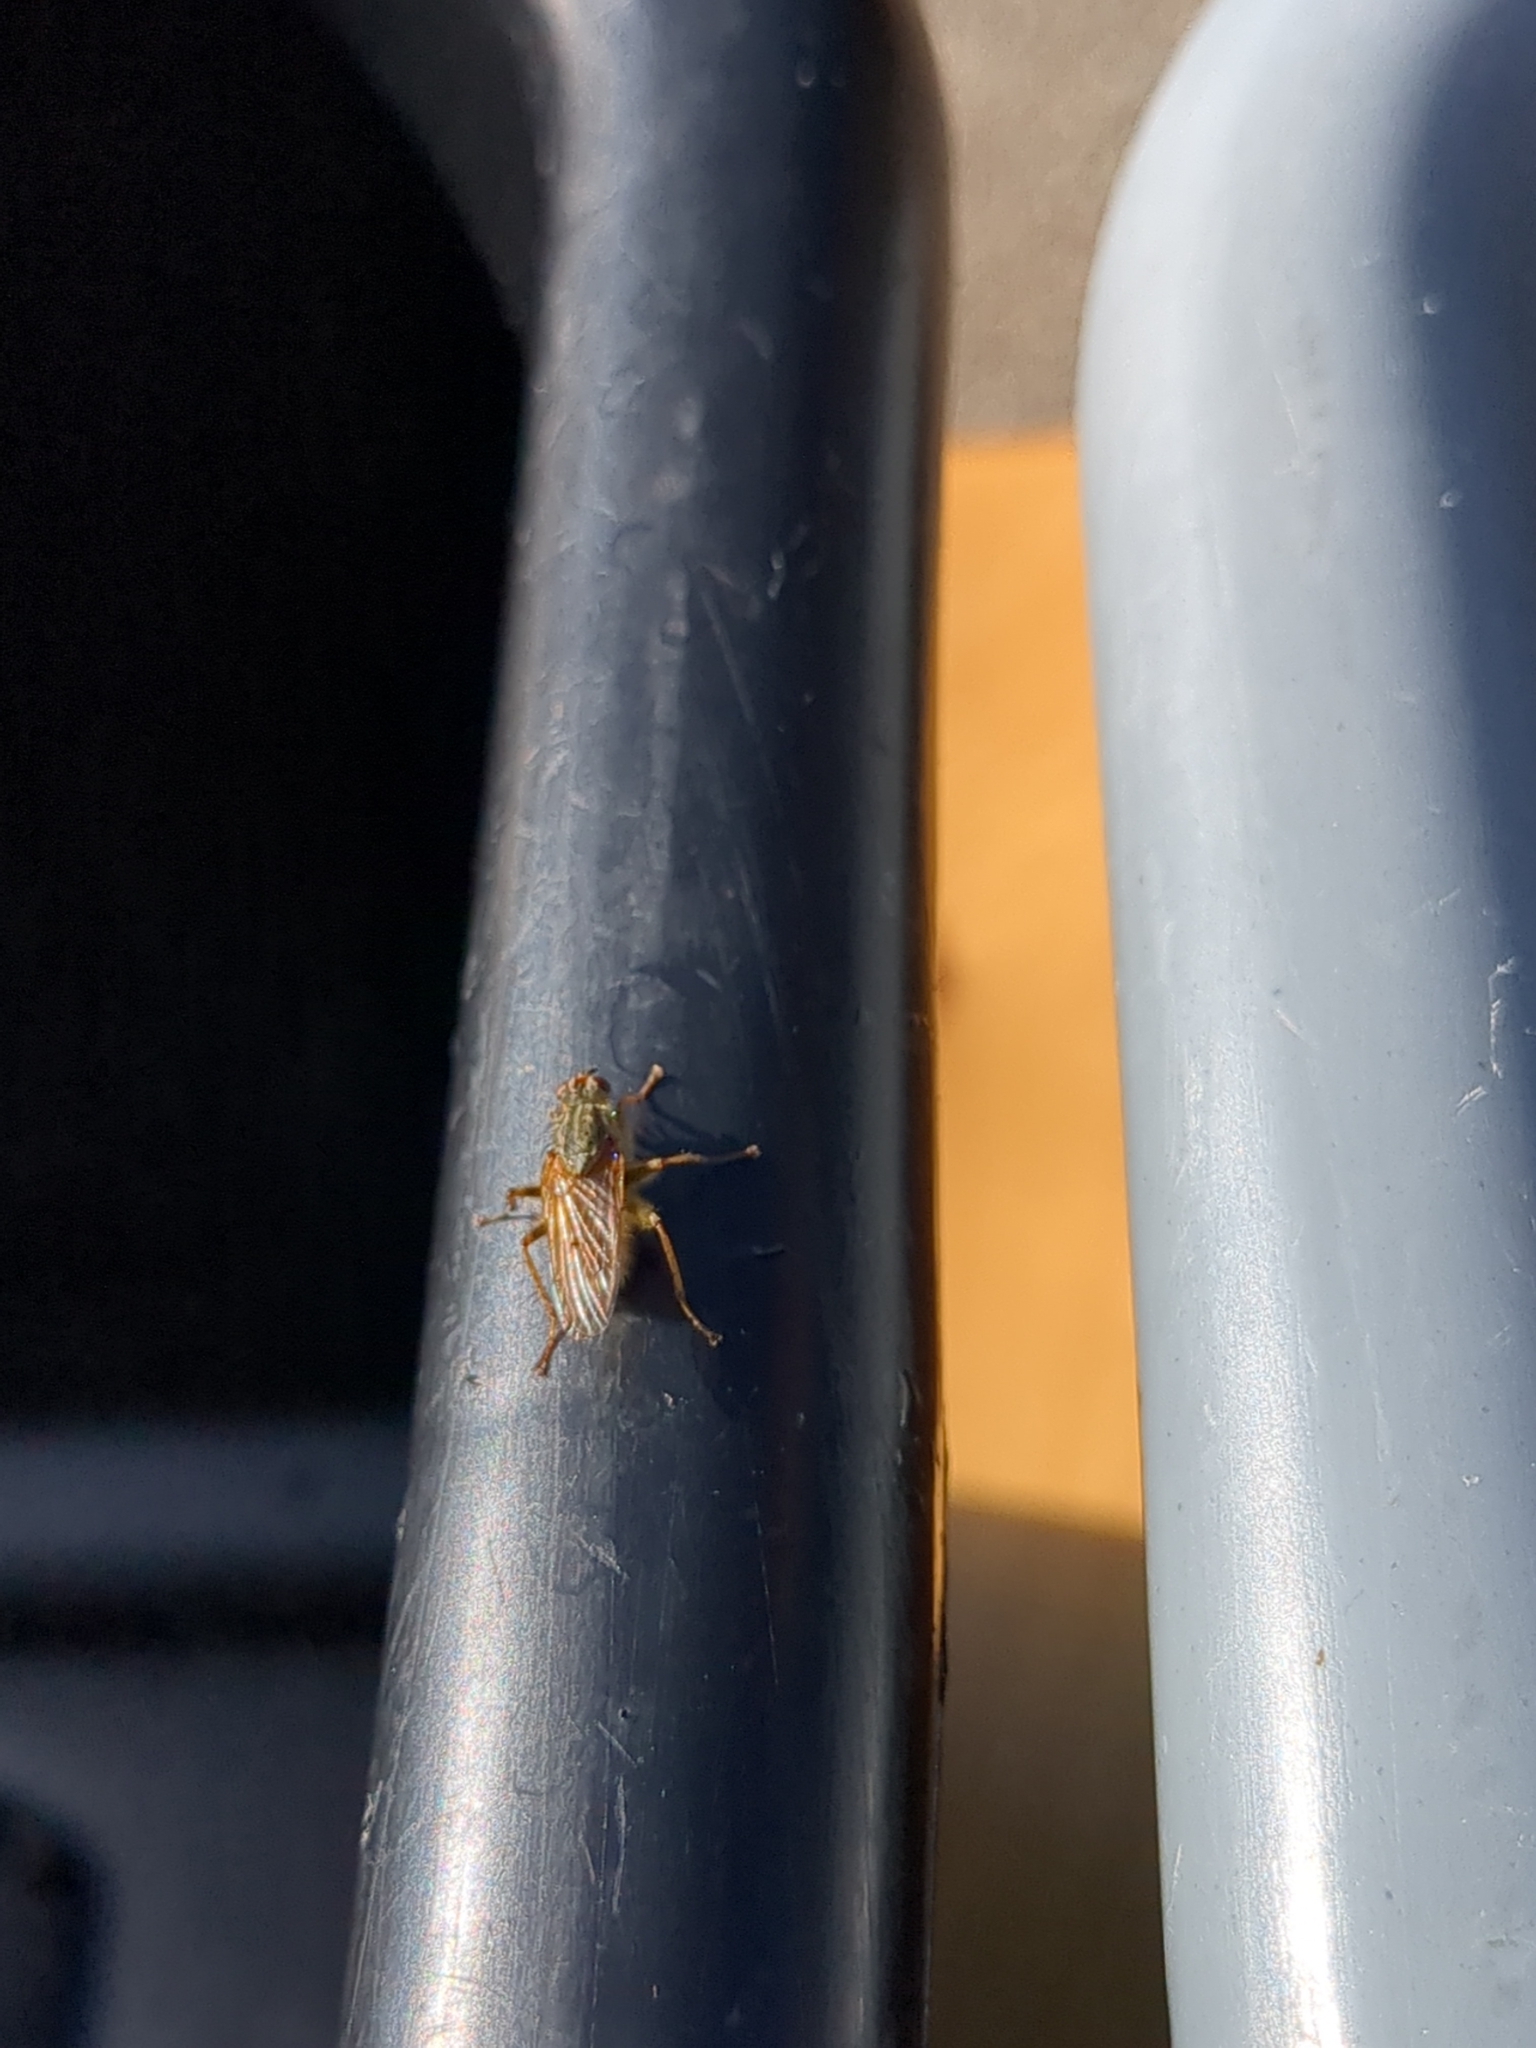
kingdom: Animalia
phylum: Arthropoda
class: Insecta
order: Diptera
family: Scathophagidae
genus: Scathophaga
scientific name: Scathophaga stercoraria
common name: Yellow dung fly
